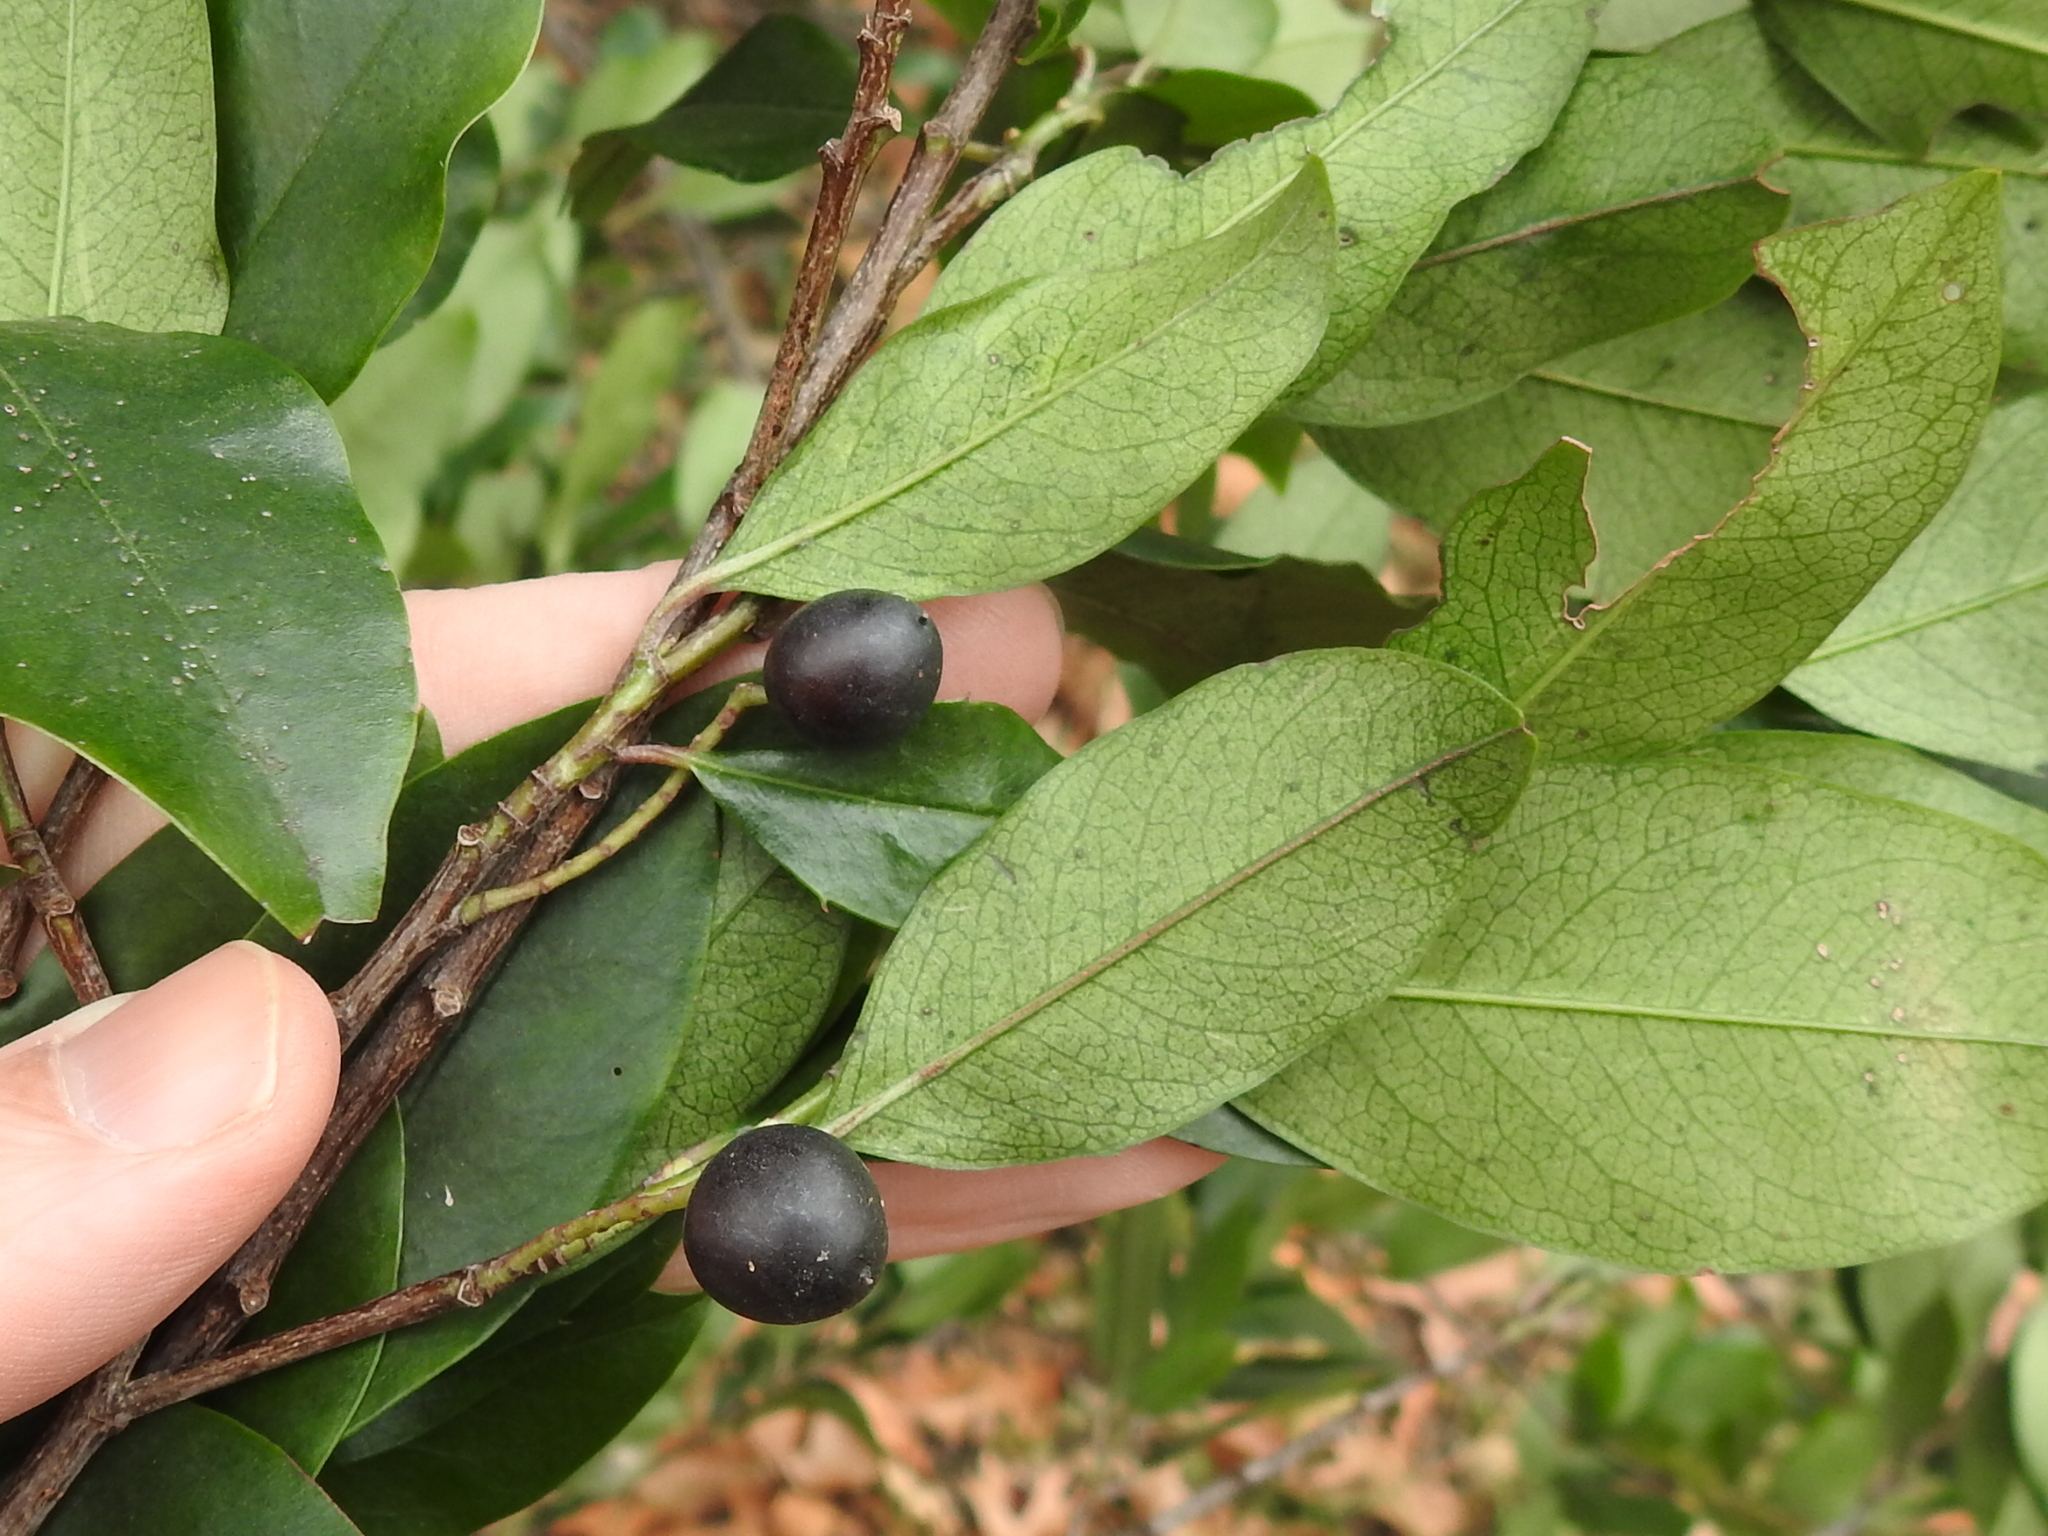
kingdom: Plantae
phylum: Tracheophyta
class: Magnoliopsida
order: Rosales
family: Rosaceae
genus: Prunus
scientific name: Prunus caroliniana
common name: Carolina laurel cherry
